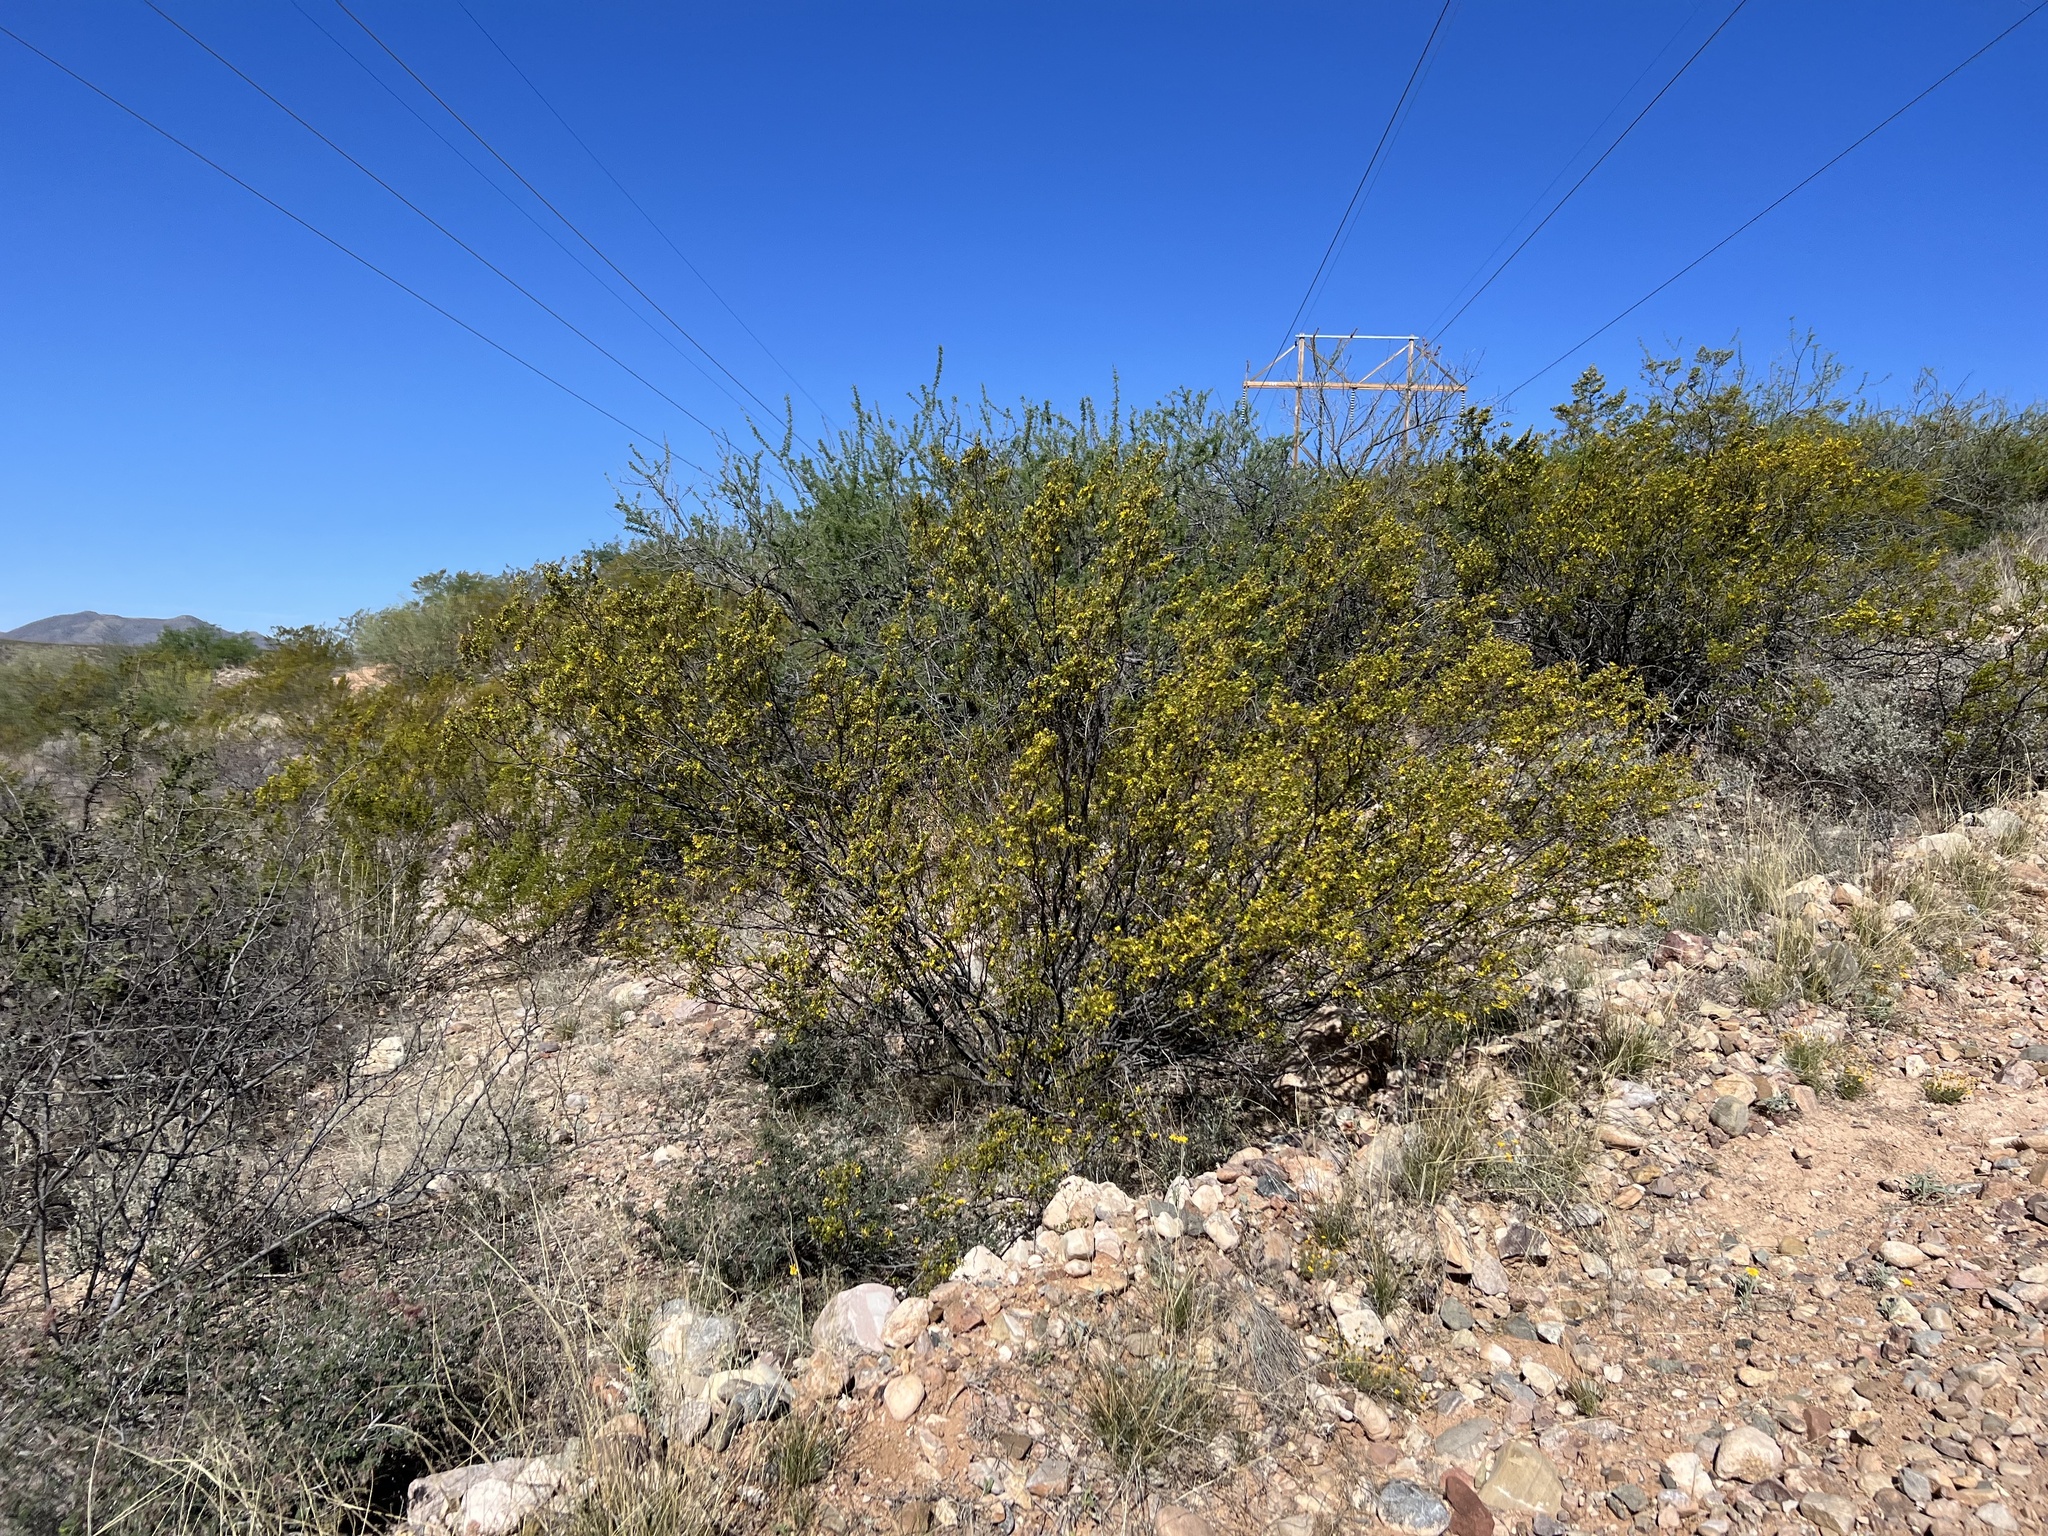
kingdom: Plantae
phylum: Tracheophyta
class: Magnoliopsida
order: Zygophyllales
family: Zygophyllaceae
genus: Larrea
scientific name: Larrea tridentata
